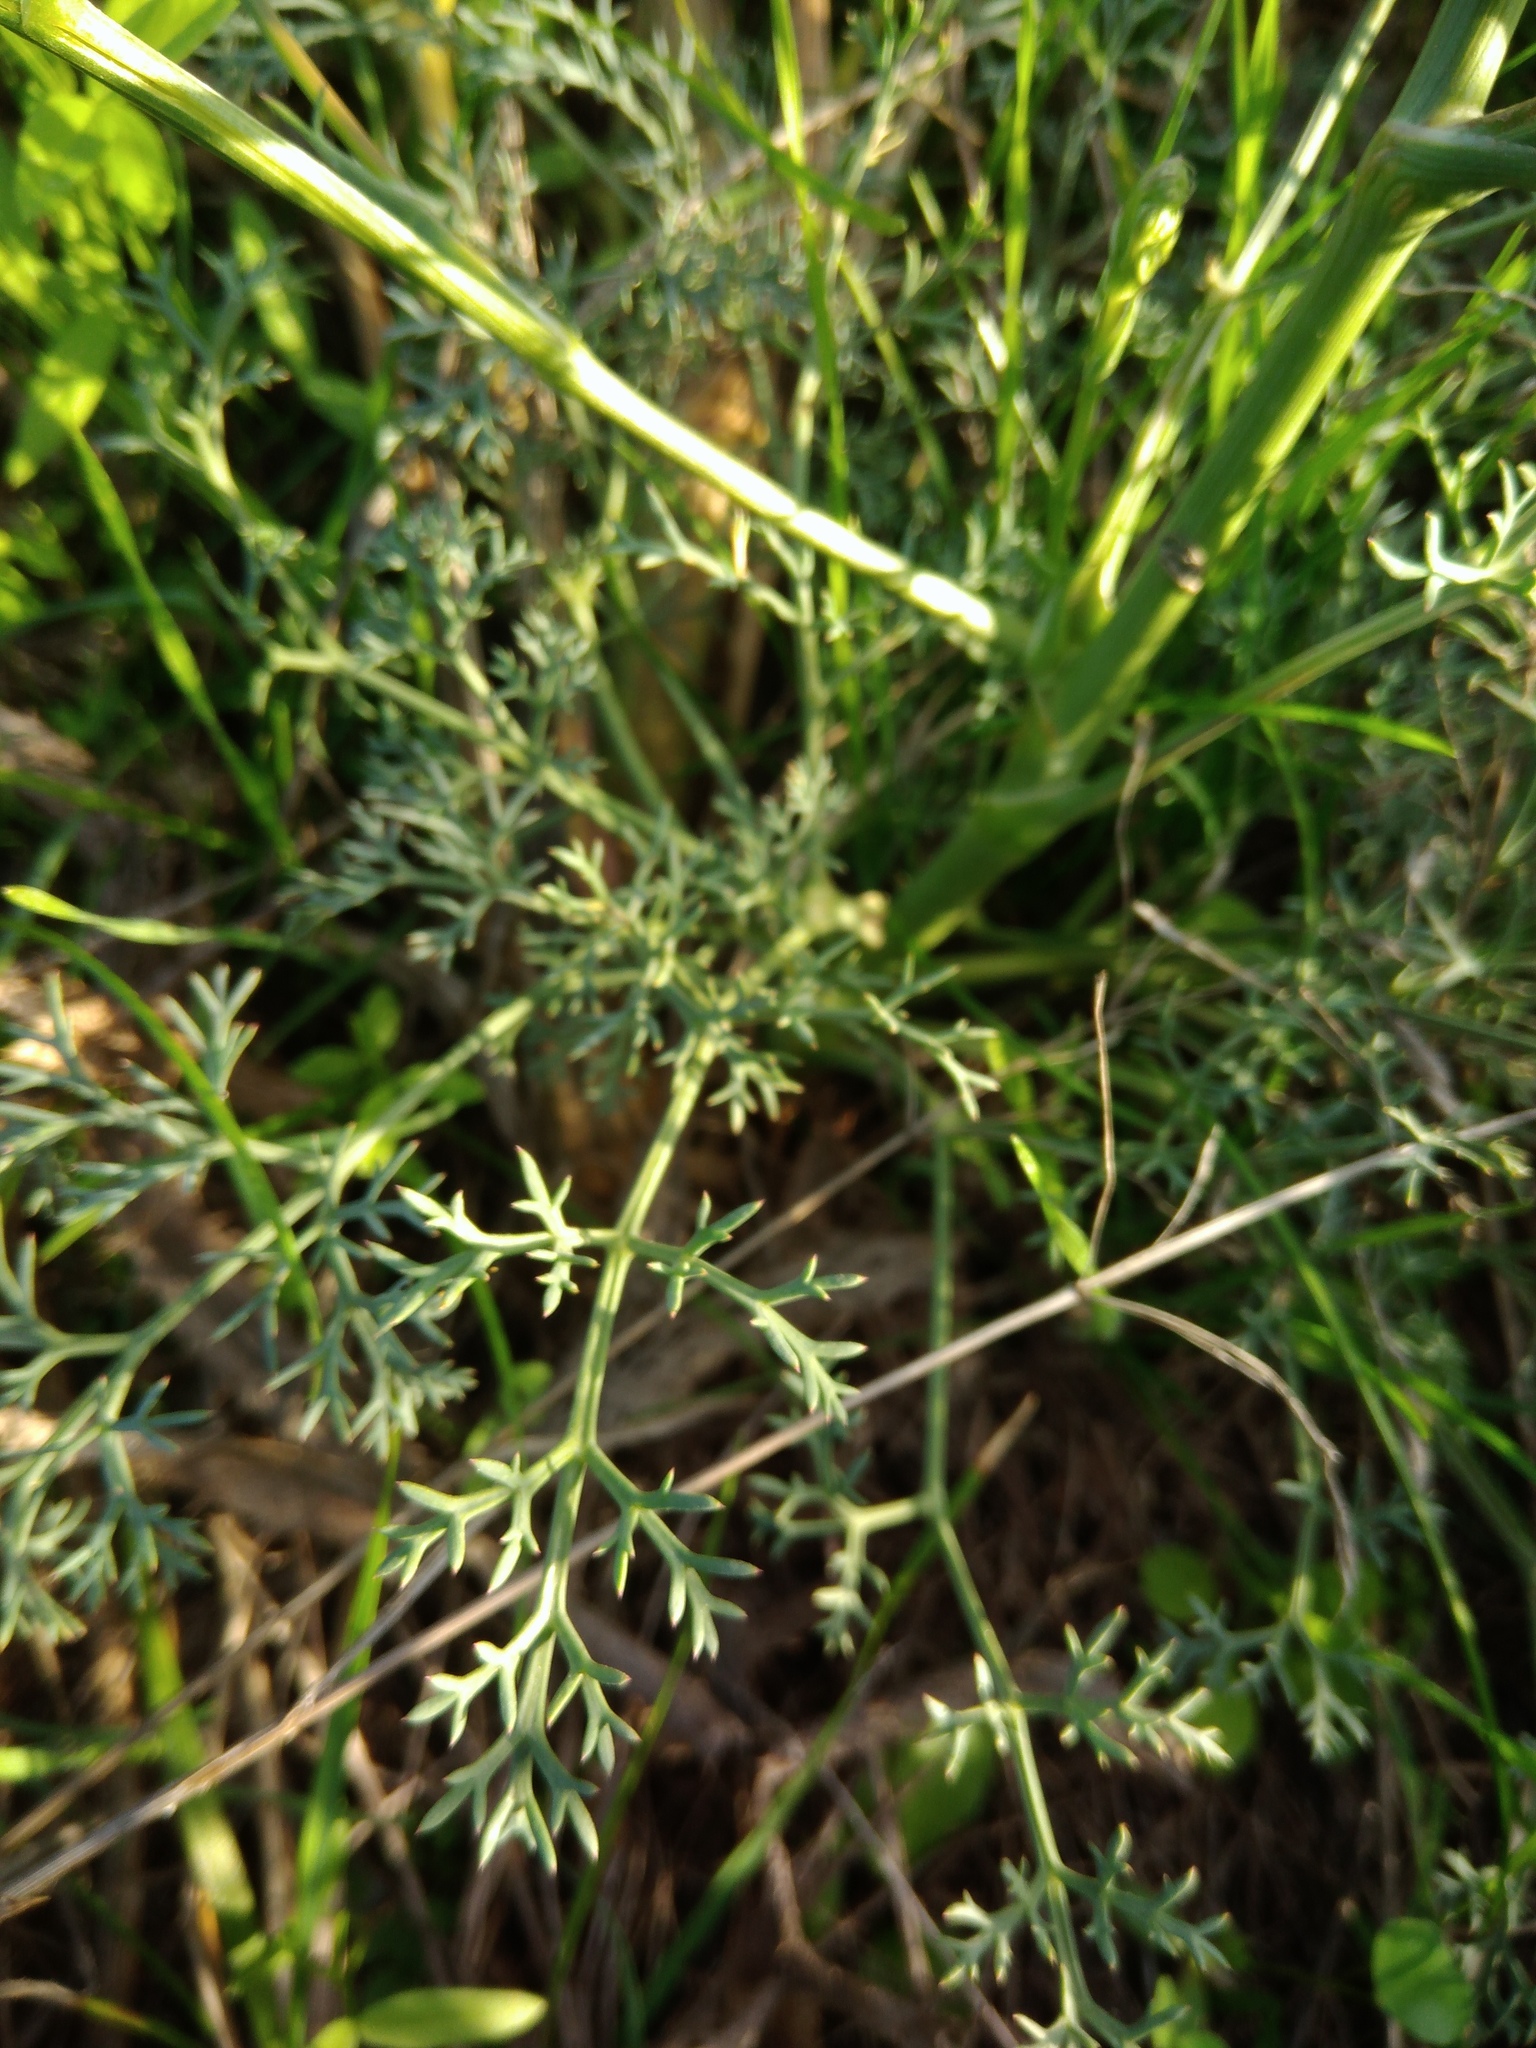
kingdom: Plantae
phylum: Tracheophyta
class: Magnoliopsida
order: Apiales
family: Apiaceae
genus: Seseli
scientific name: Seseli arenarium
